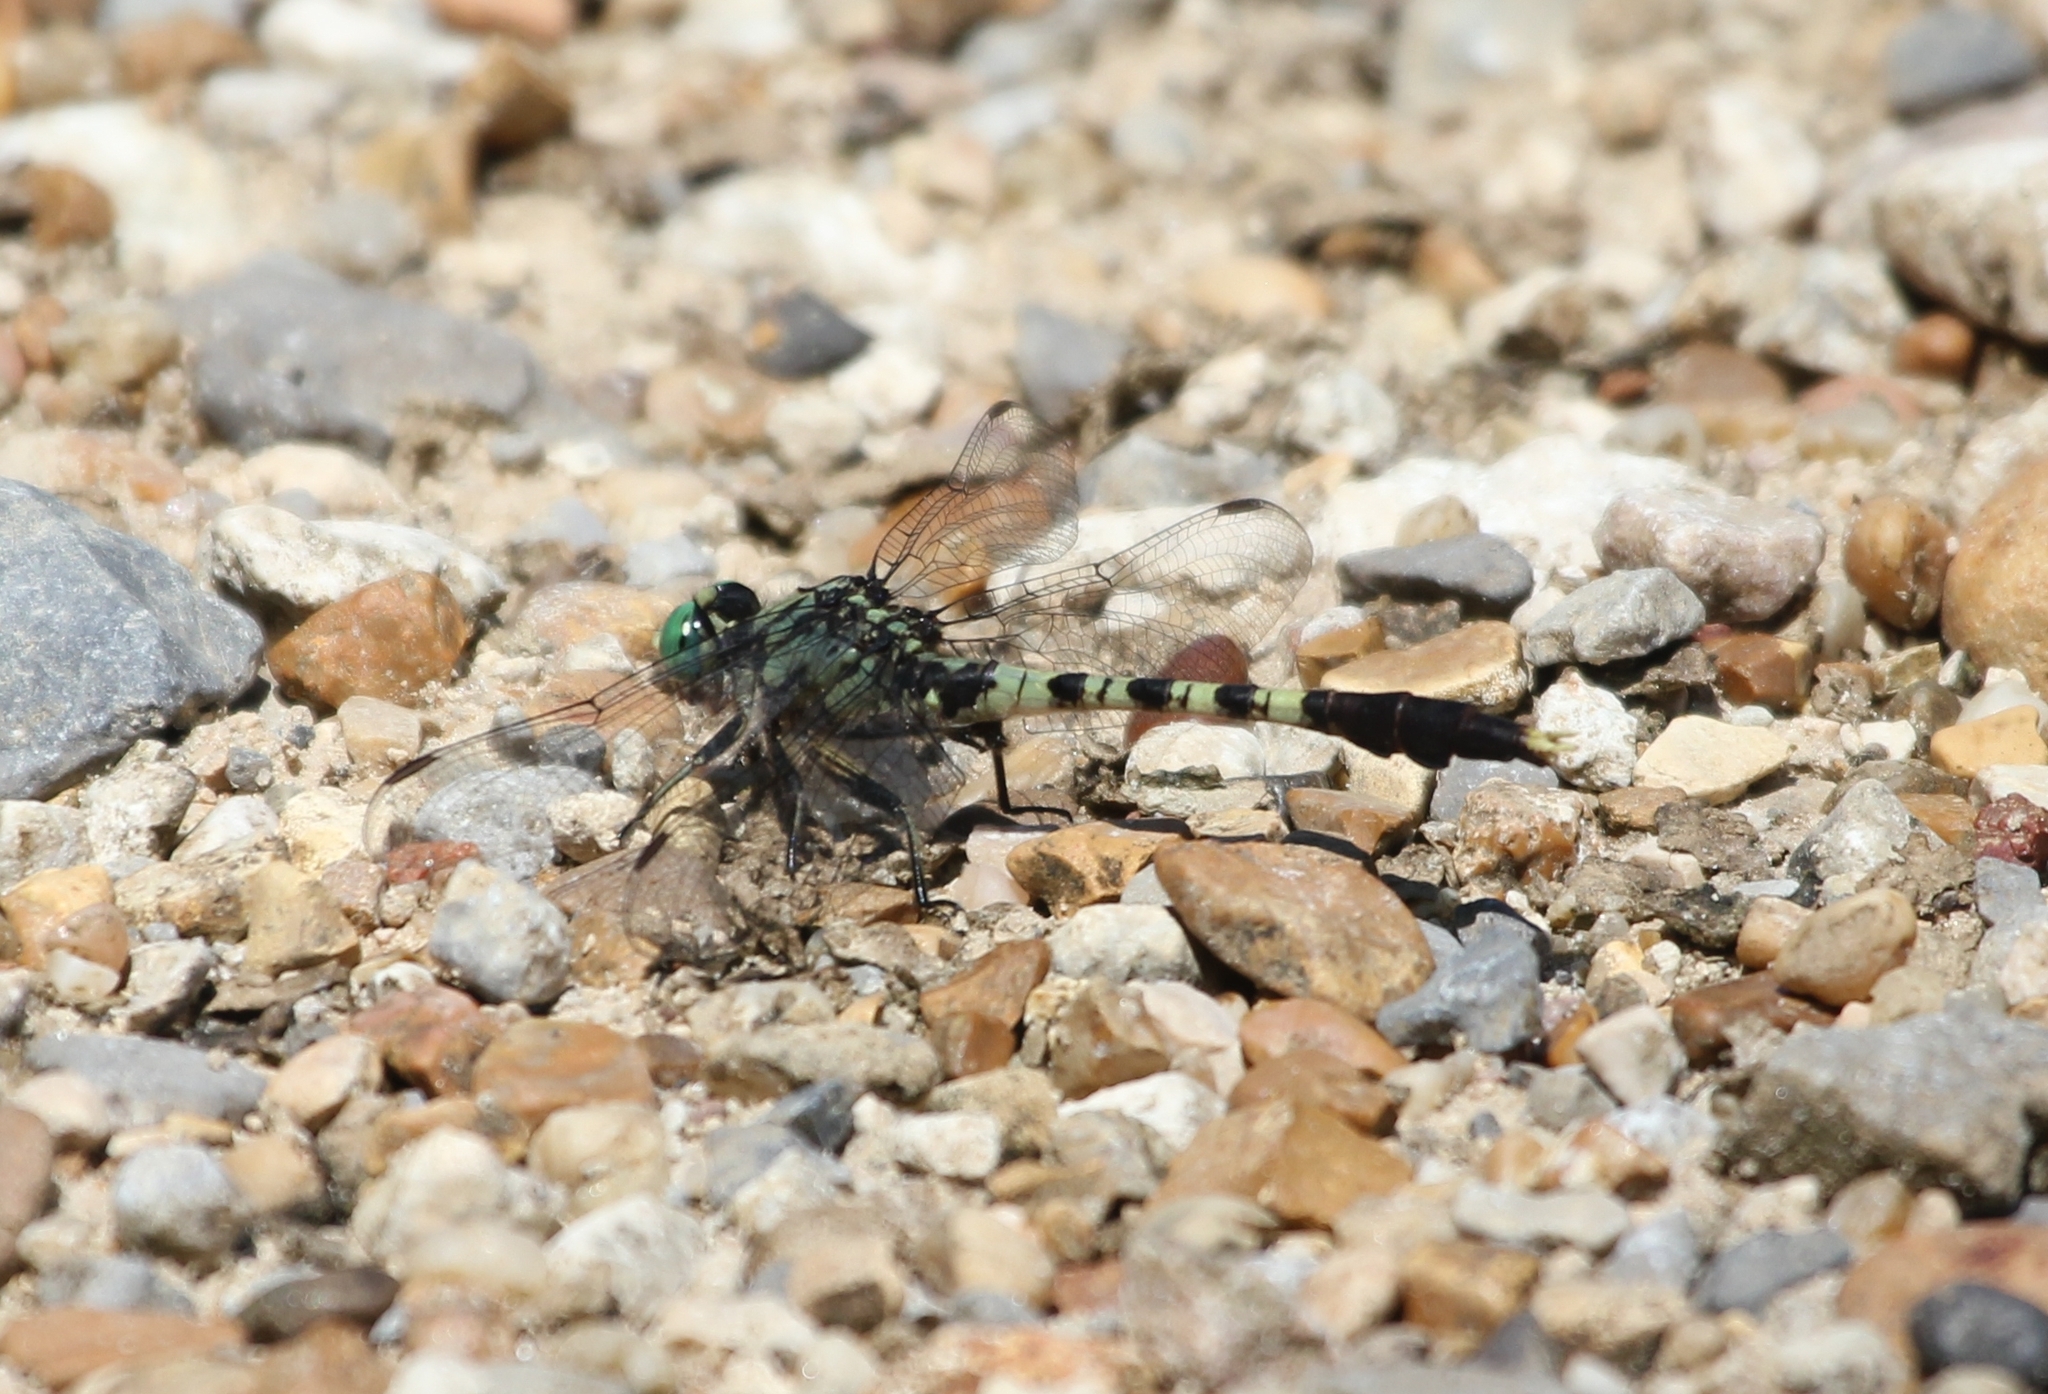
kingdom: Animalia
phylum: Arthropoda
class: Insecta
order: Odonata
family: Gomphidae
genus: Arigomphus
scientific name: Arigomphus maxwelli
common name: Bayou clubtail
